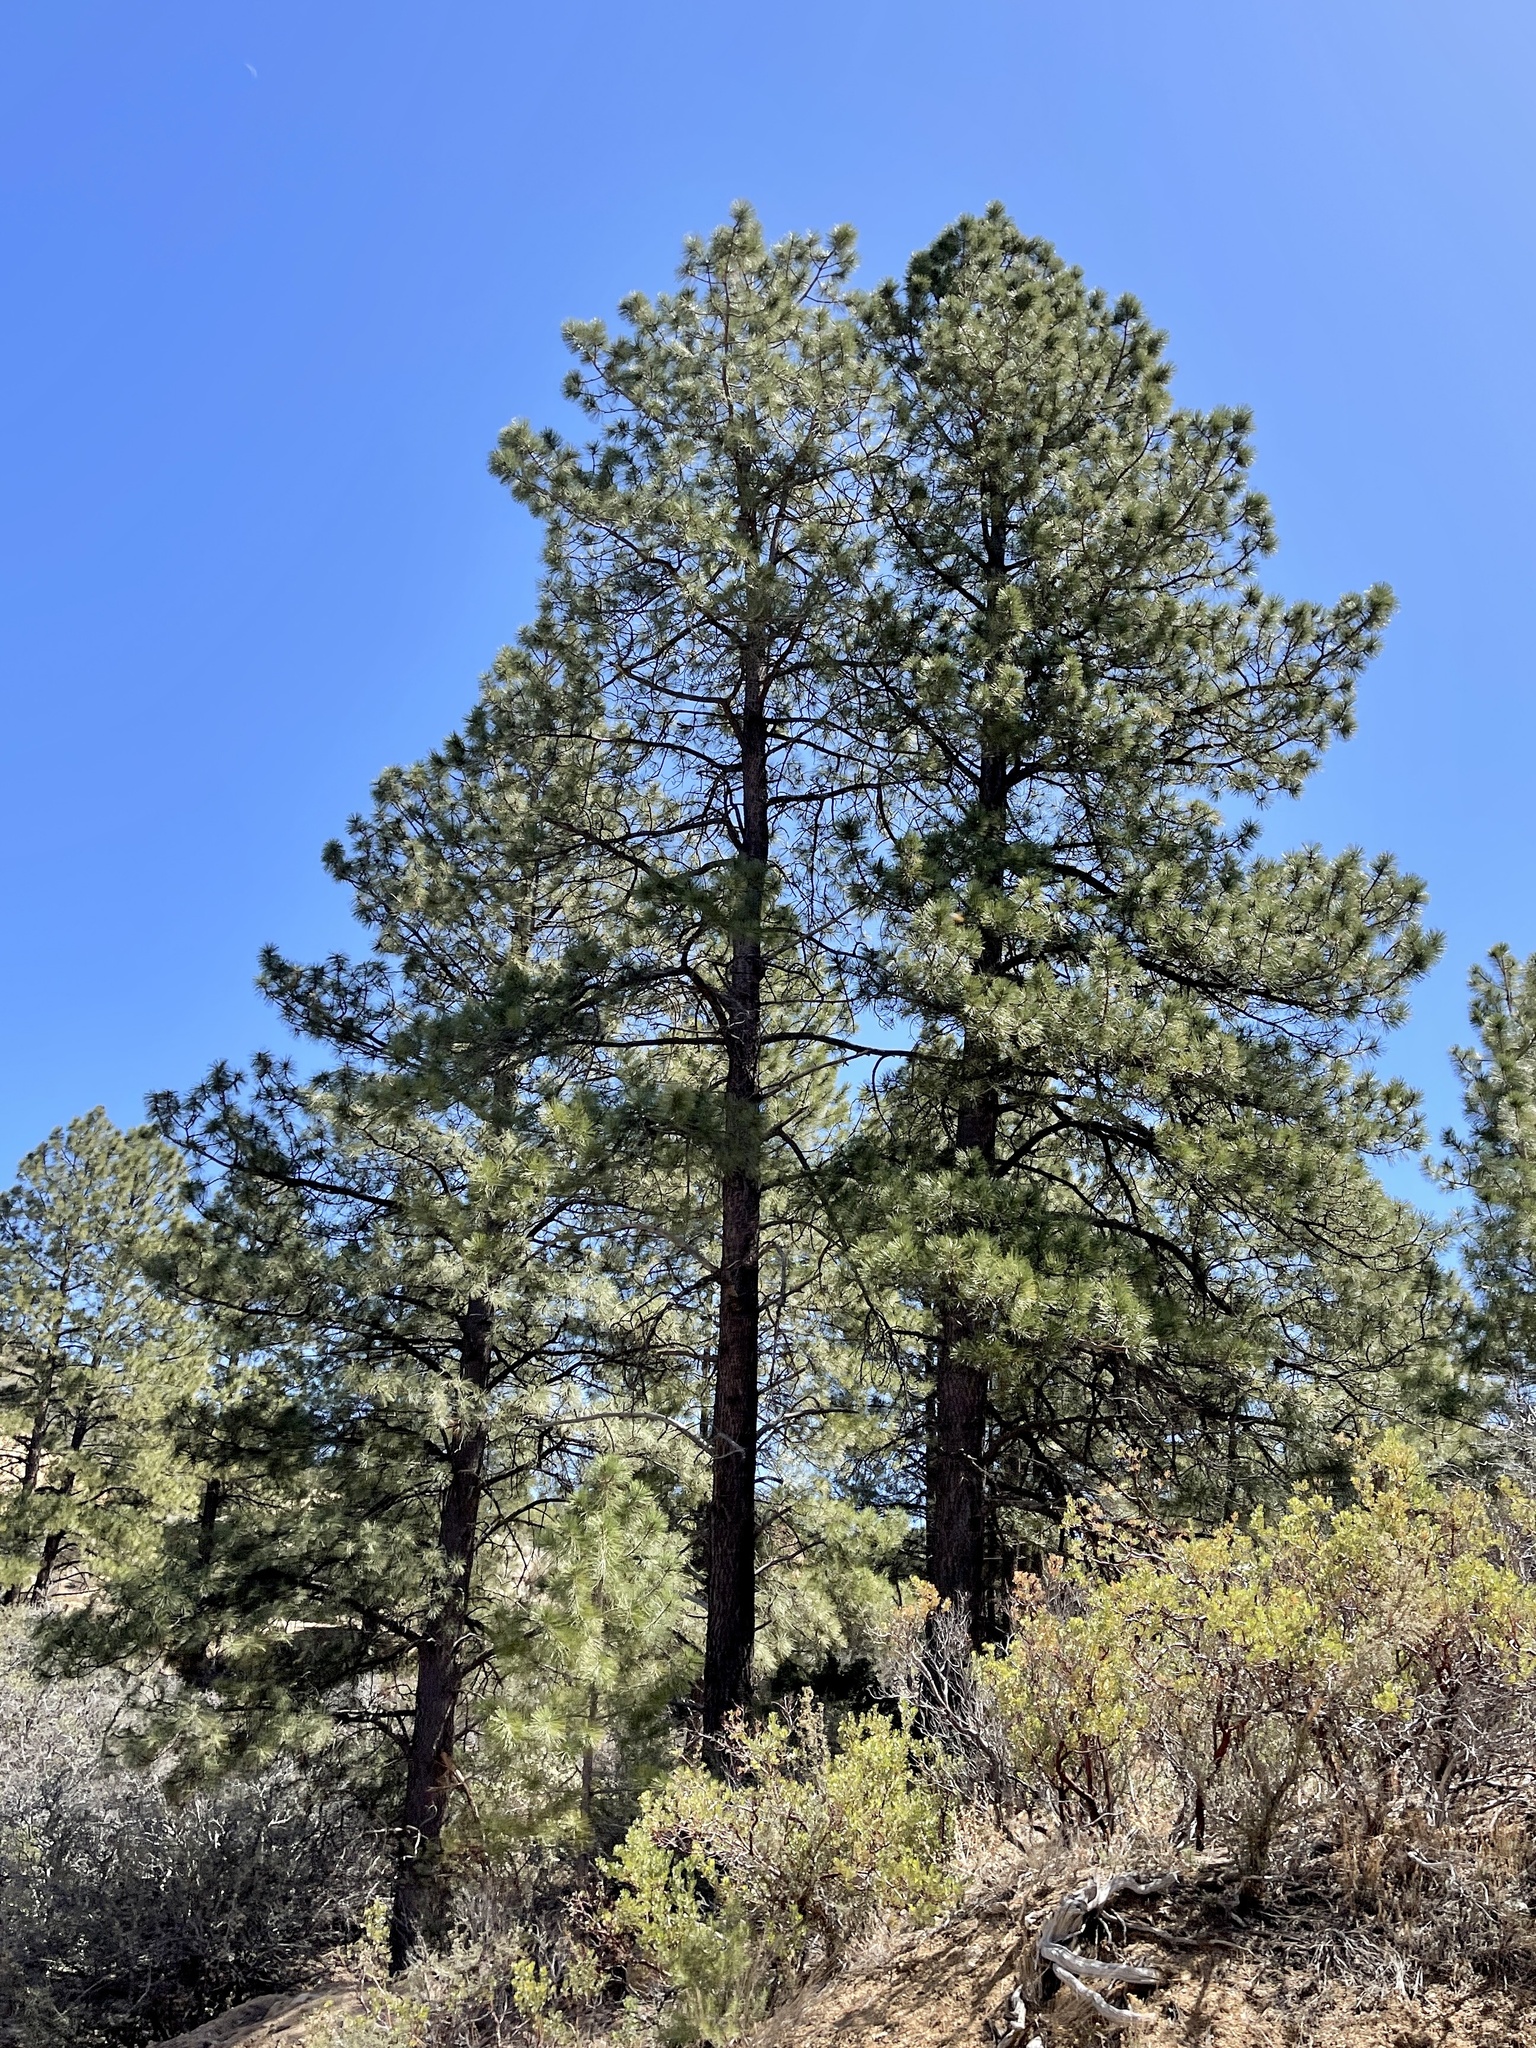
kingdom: Plantae
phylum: Tracheophyta
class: Pinopsida
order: Pinales
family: Pinaceae
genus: Pinus
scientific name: Pinus ponderosa
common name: Western yellow-pine
